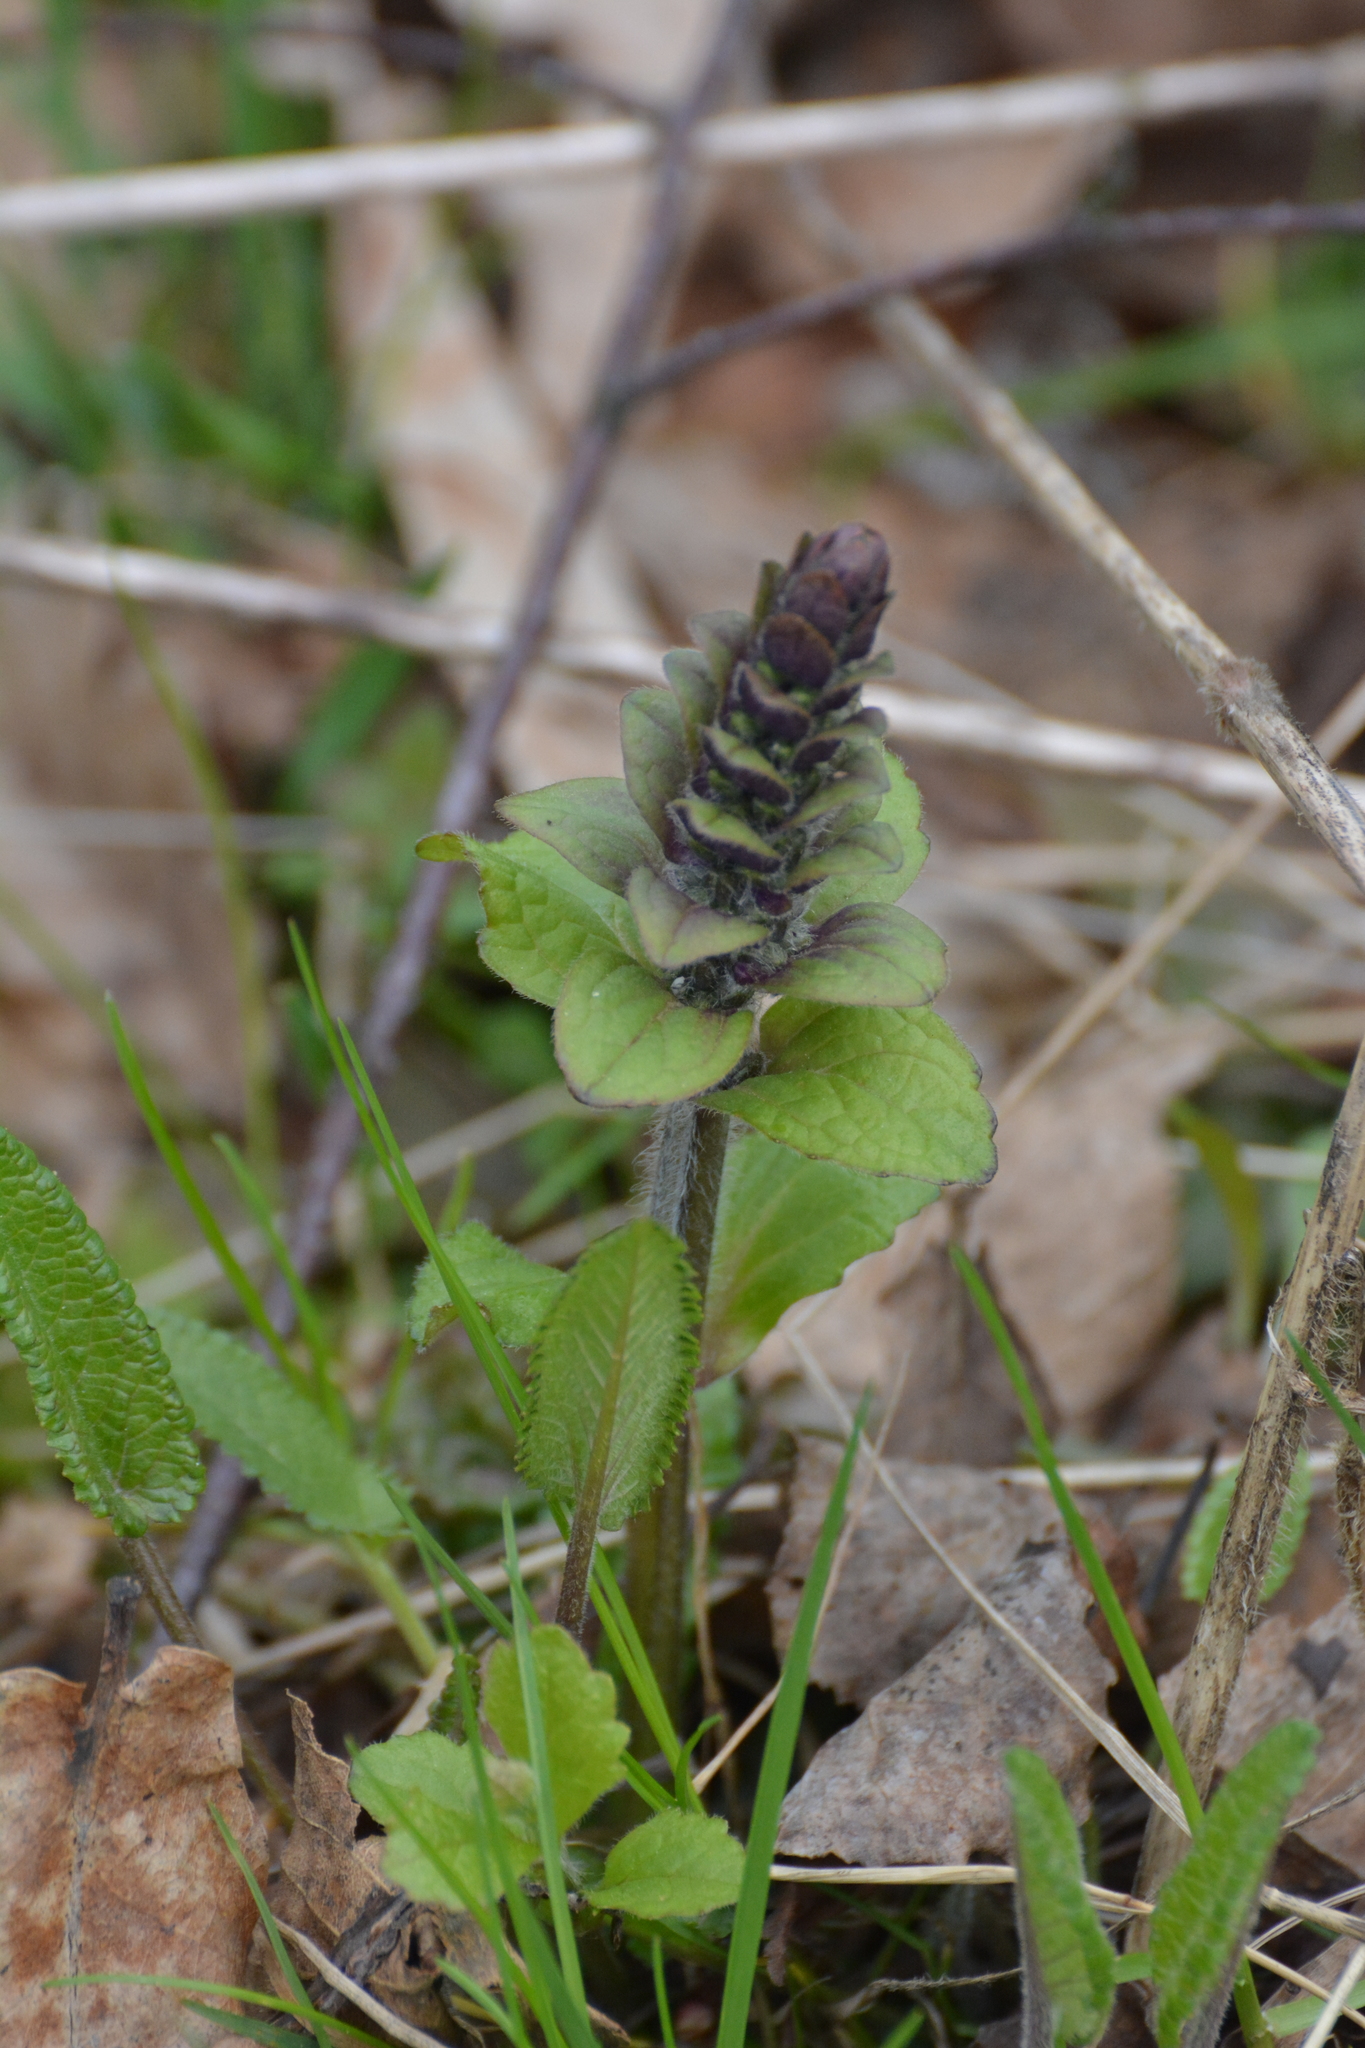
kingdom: Plantae
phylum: Tracheophyta
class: Magnoliopsida
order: Lamiales
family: Lamiaceae
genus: Ajuga
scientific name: Ajuga reptans
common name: Bugle
